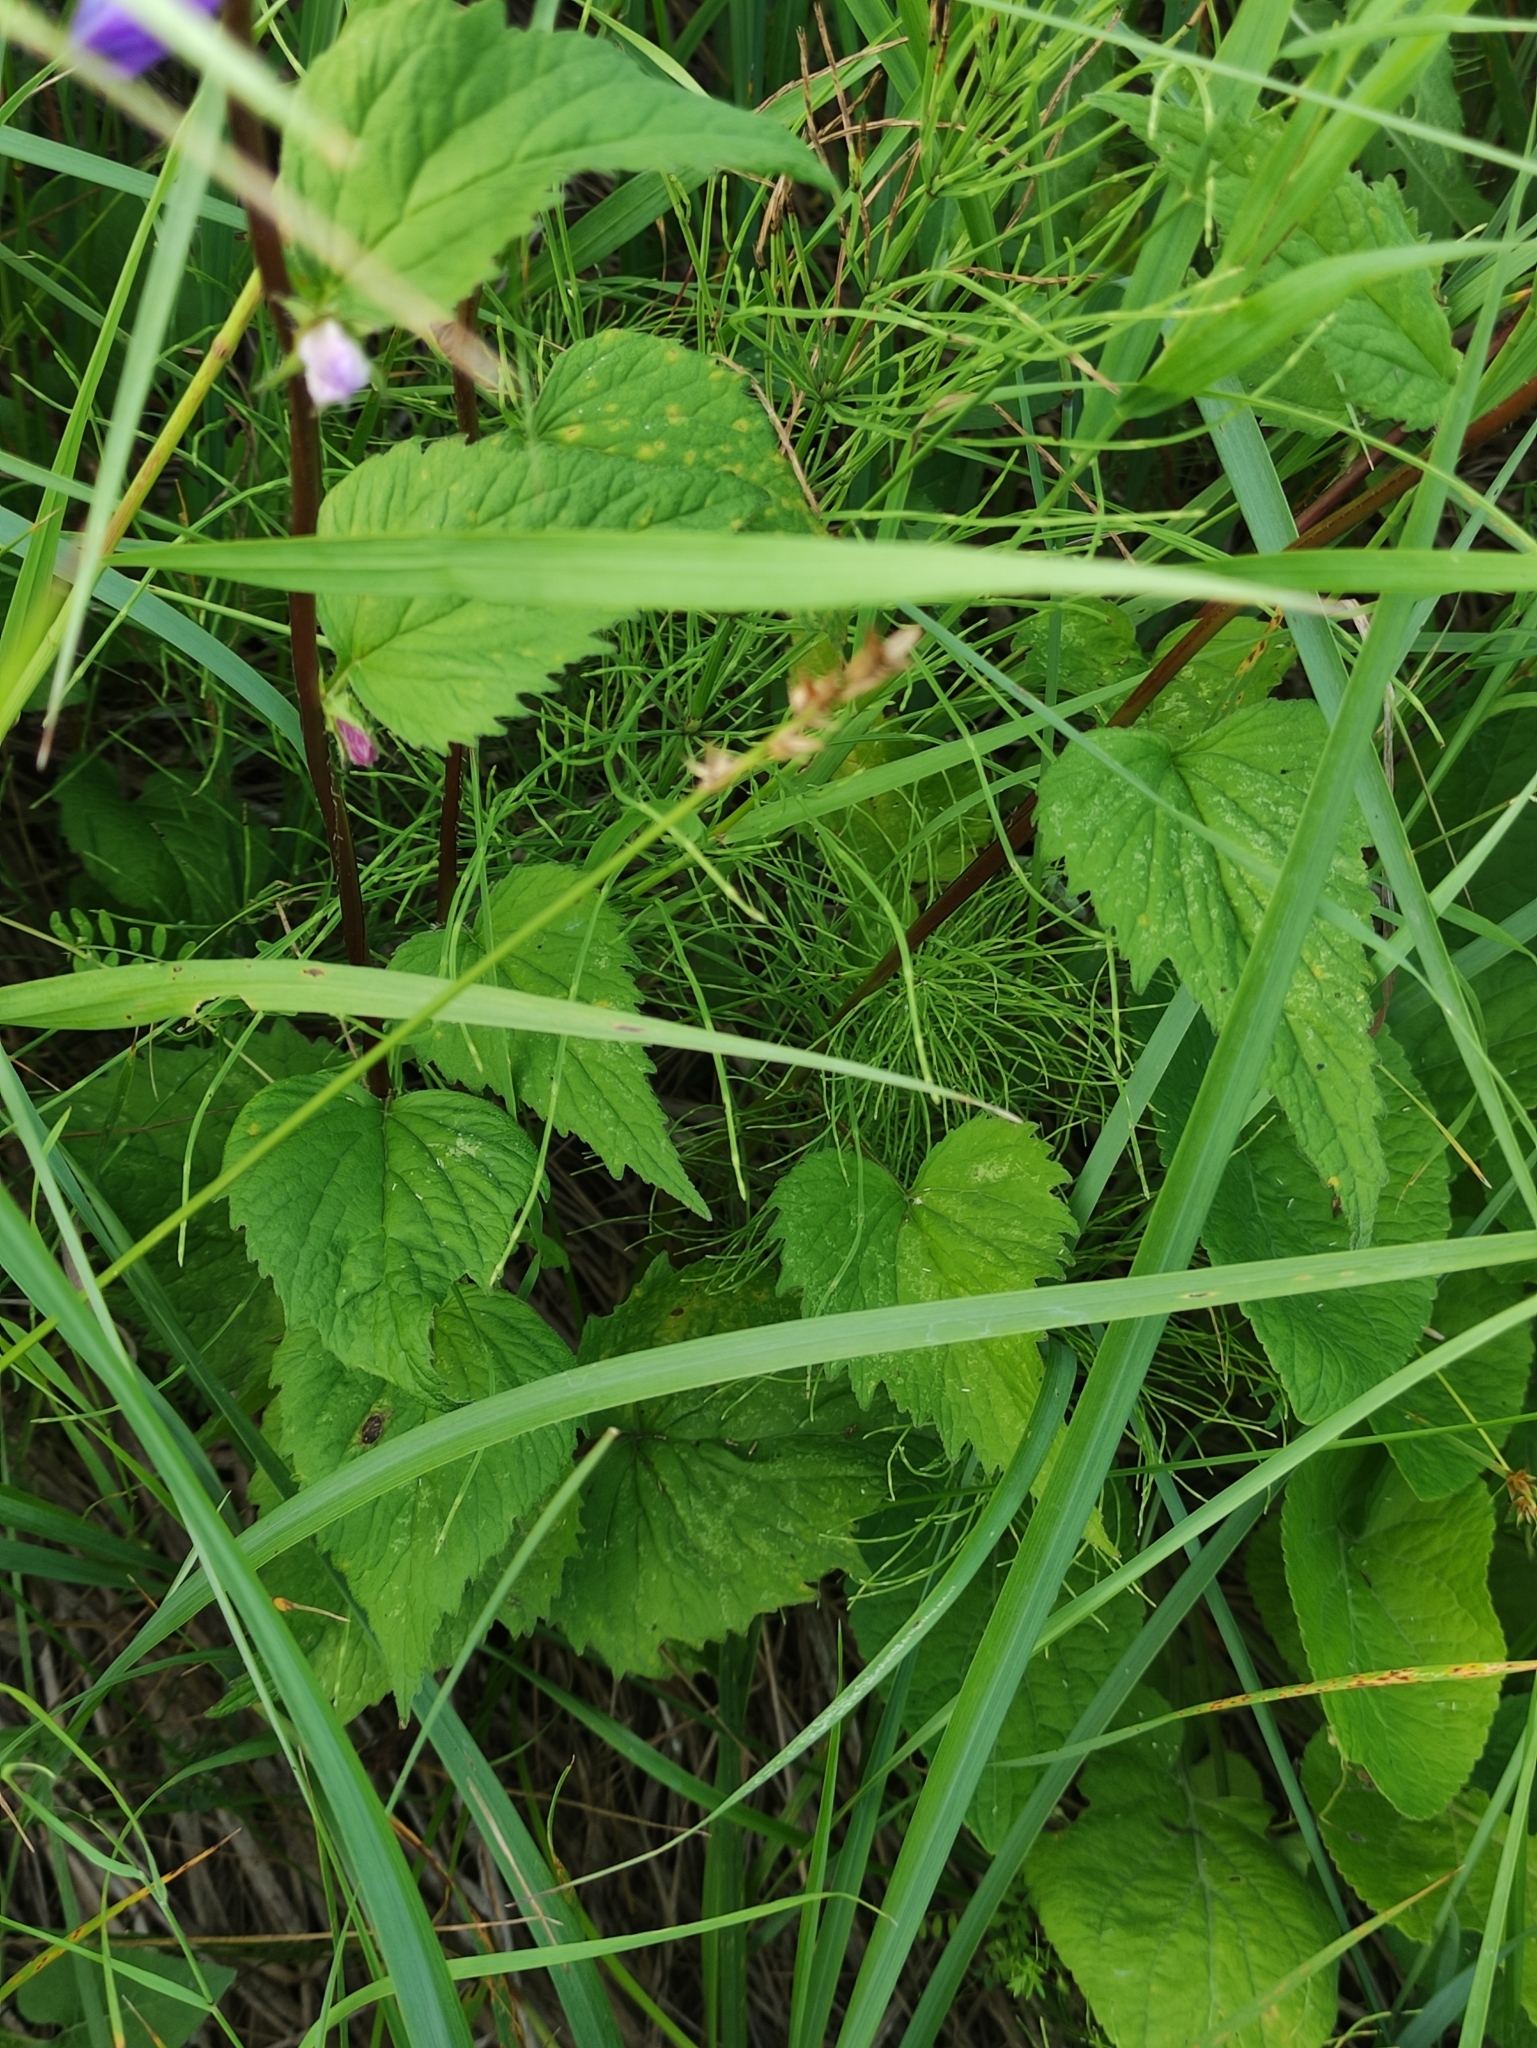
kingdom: Plantae
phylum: Tracheophyta
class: Magnoliopsida
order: Asterales
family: Campanulaceae
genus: Campanula
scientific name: Campanula trachelium
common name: Nettle-leaved bellflower
